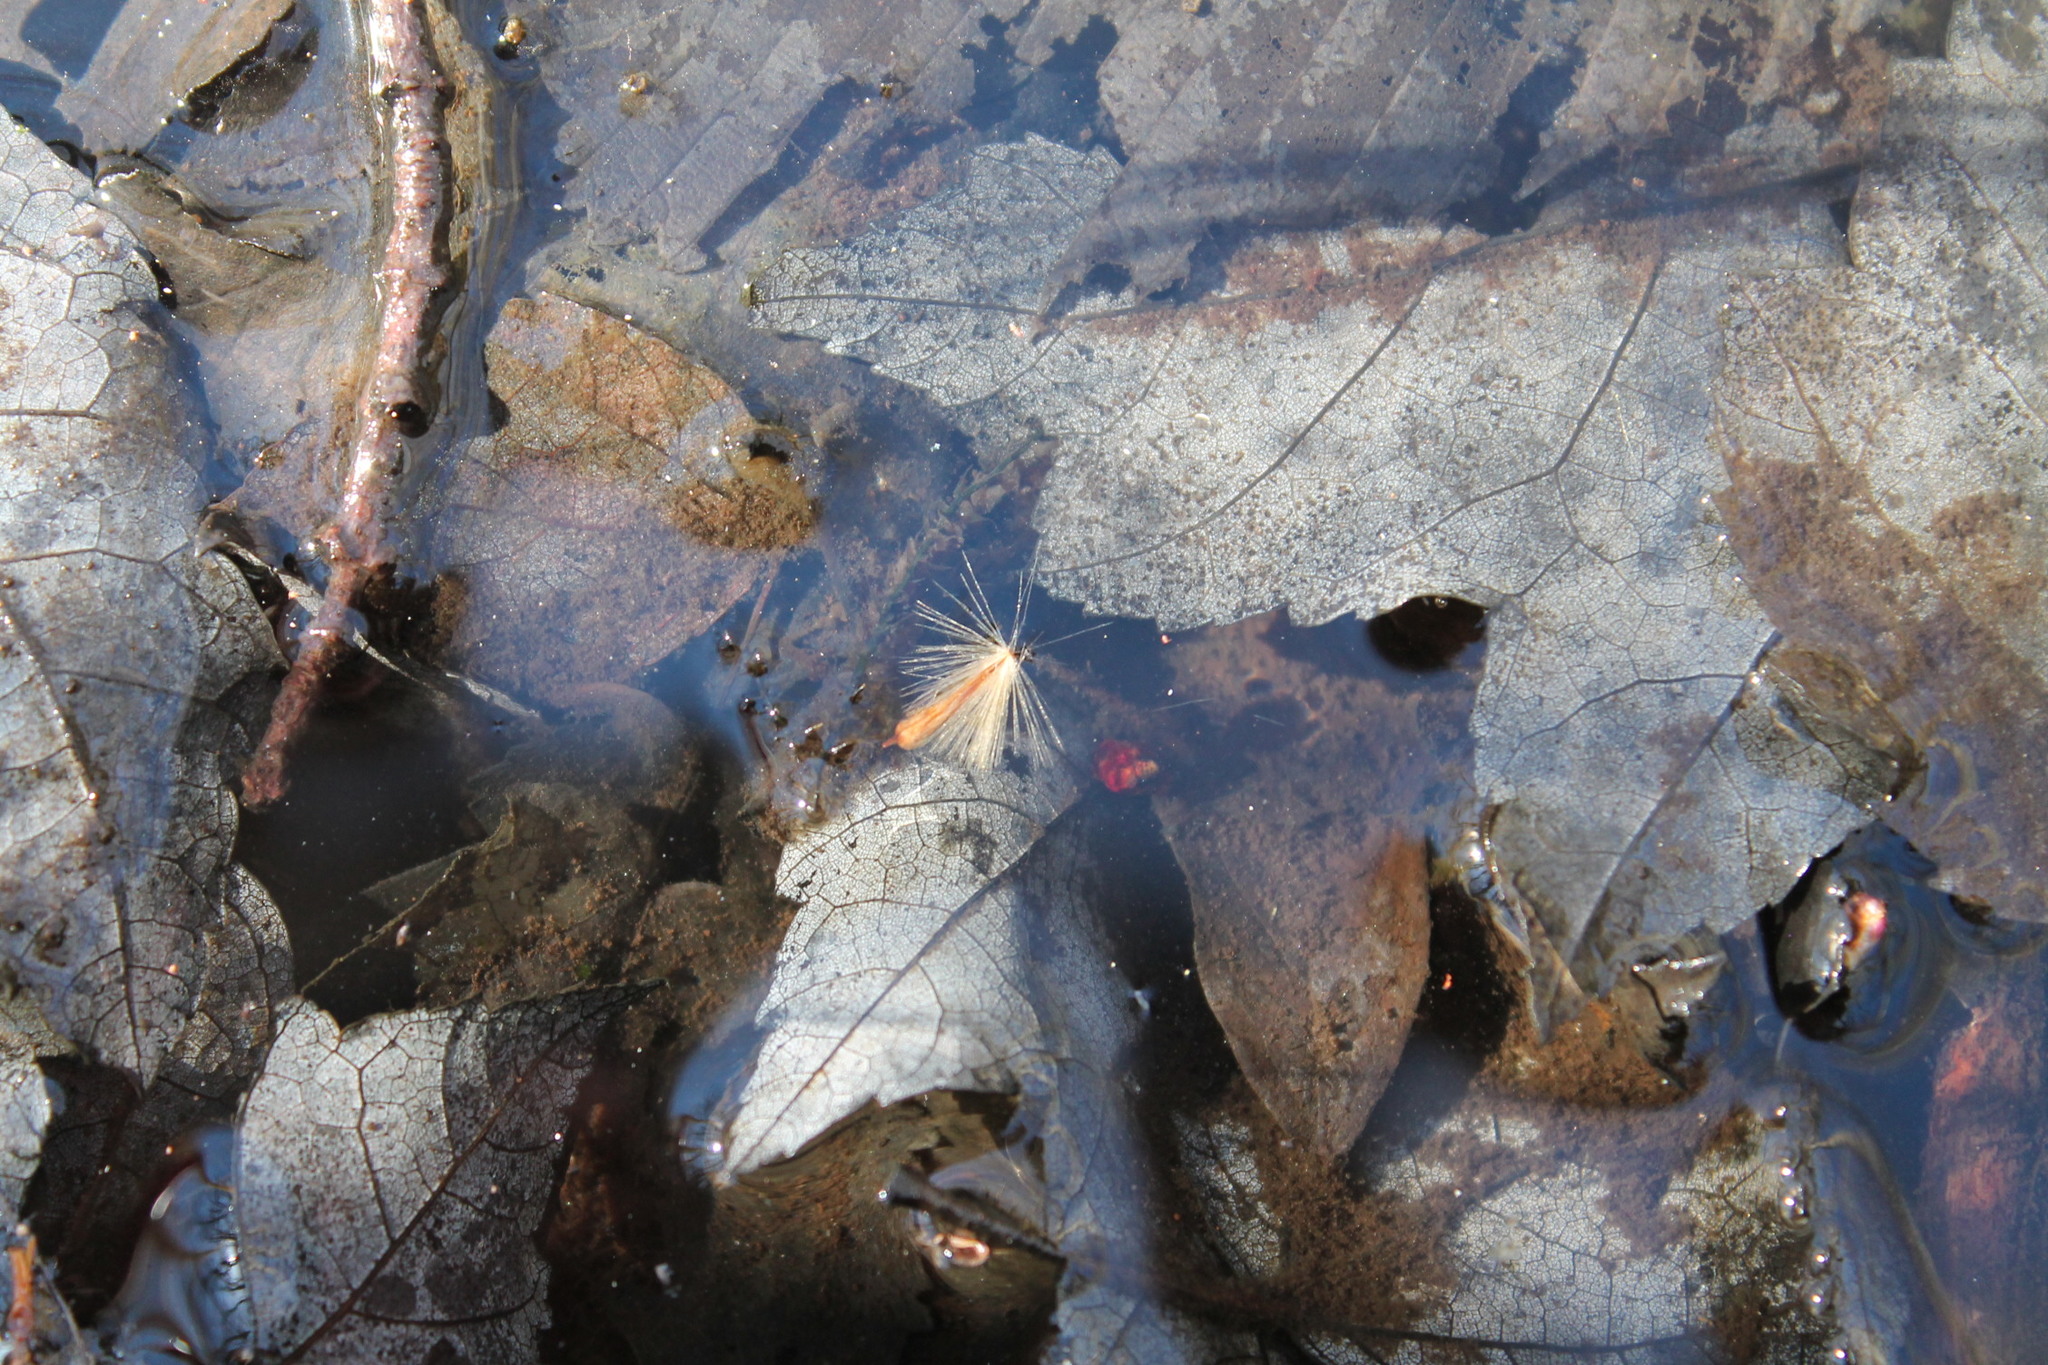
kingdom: Plantae
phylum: Tracheophyta
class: Magnoliopsida
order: Proteales
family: Platanaceae
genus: Platanus
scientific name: Platanus occidentalis
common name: American sycamore
